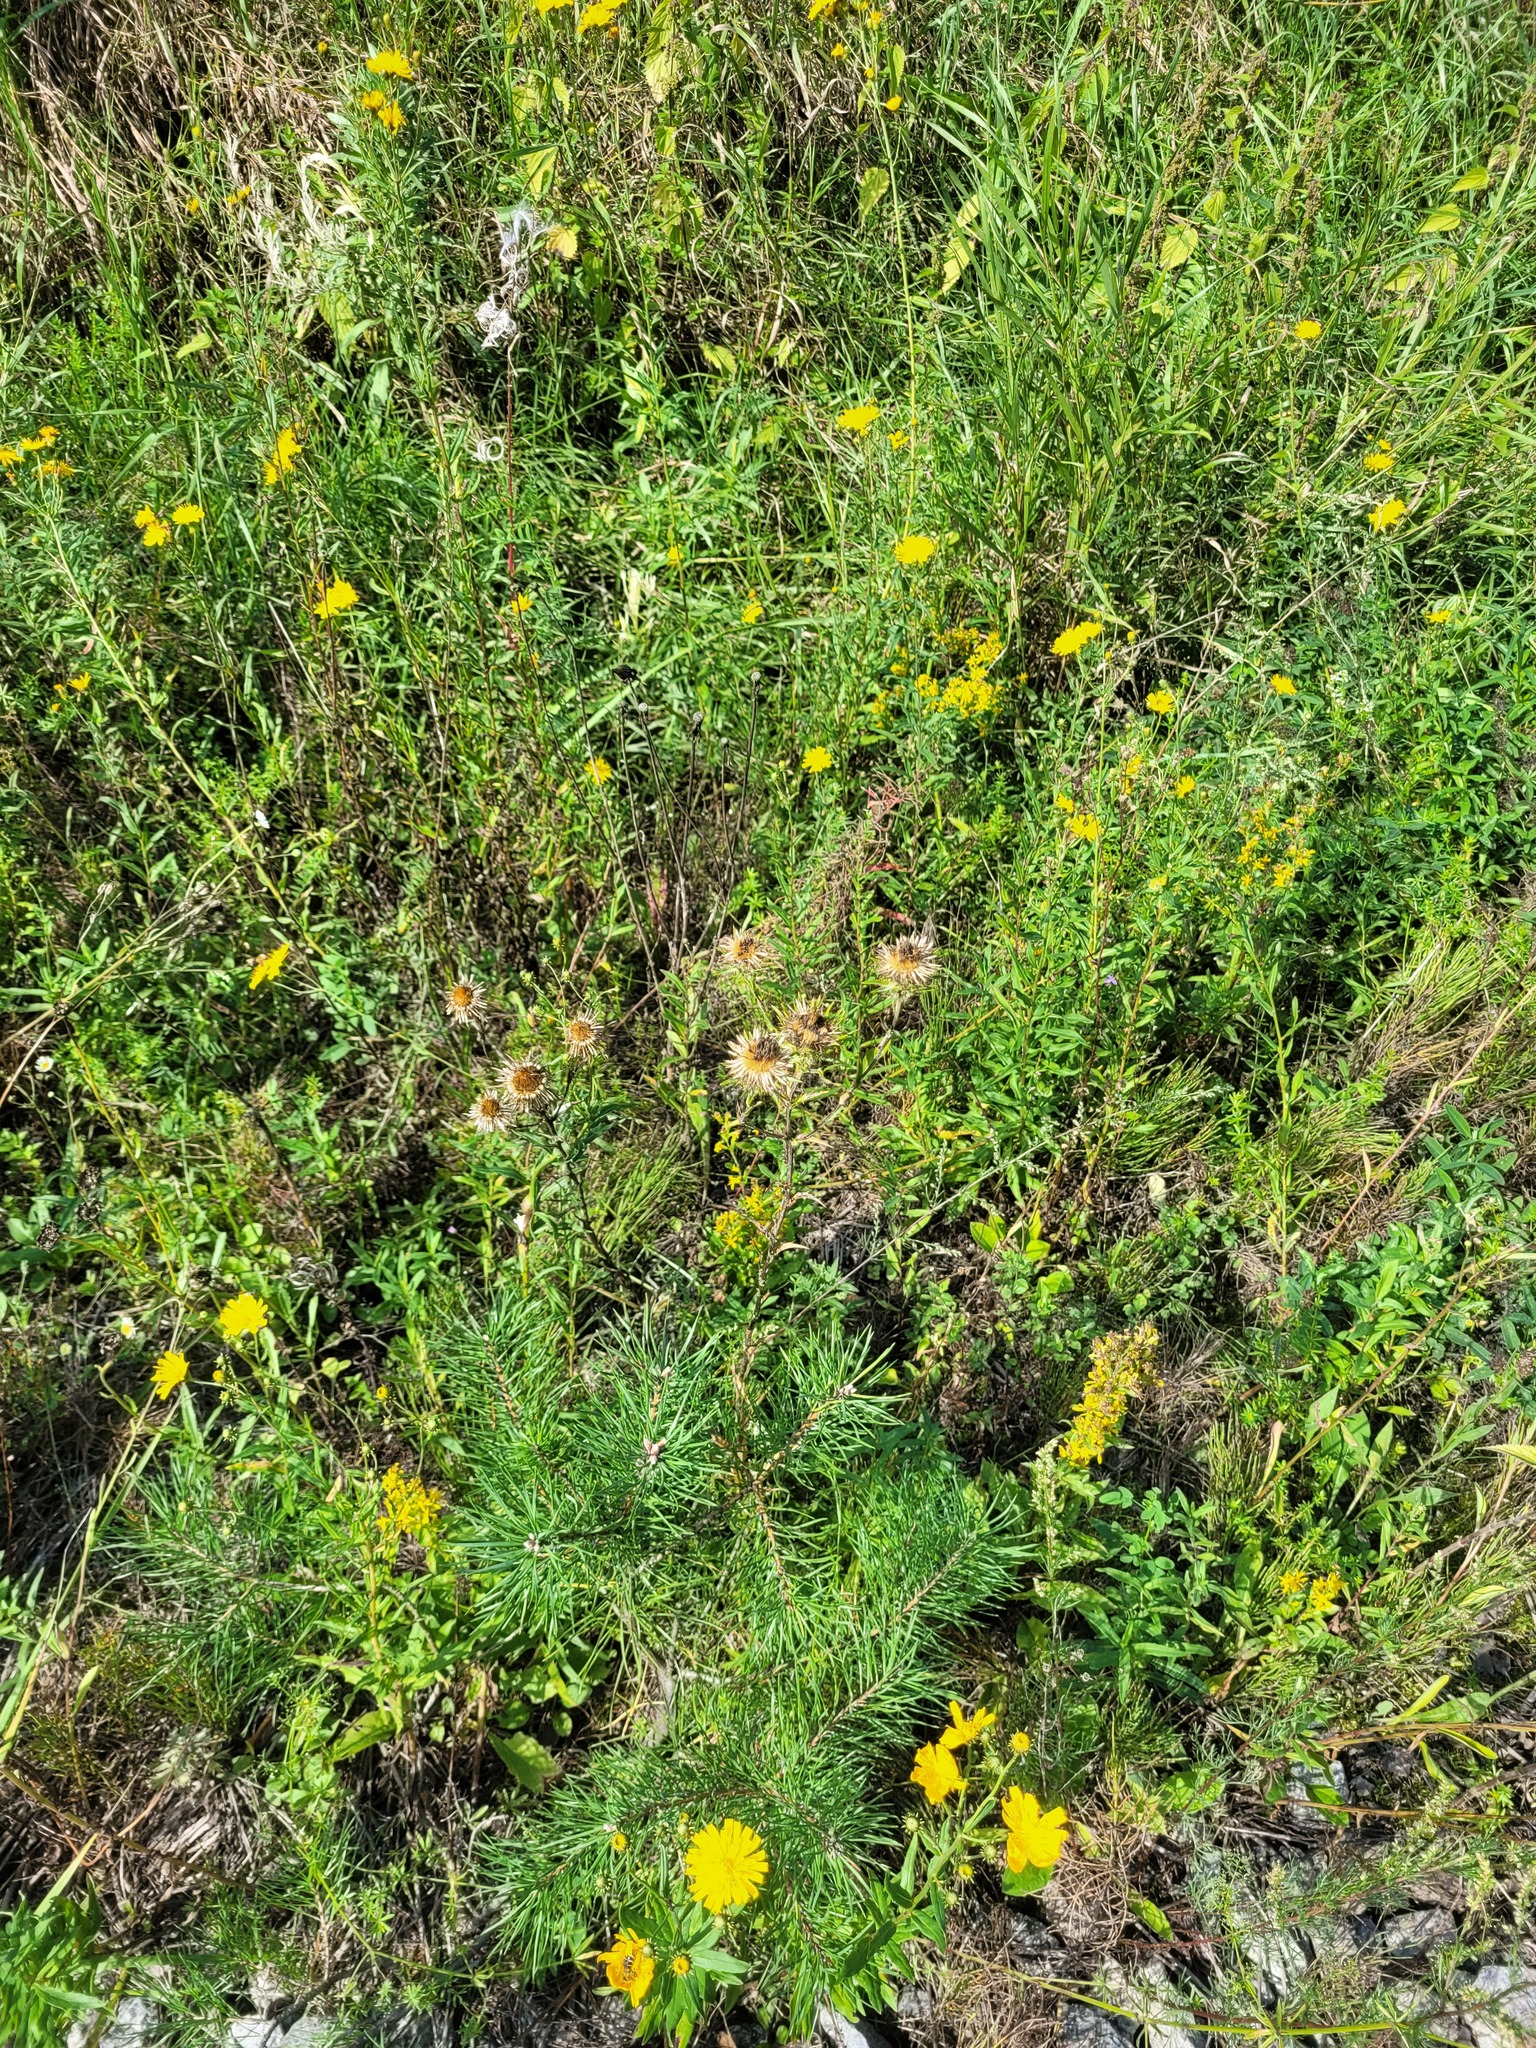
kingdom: Plantae
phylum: Tracheophyta
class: Magnoliopsida
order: Asterales
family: Asteraceae
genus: Carlina
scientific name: Carlina biebersteinii
